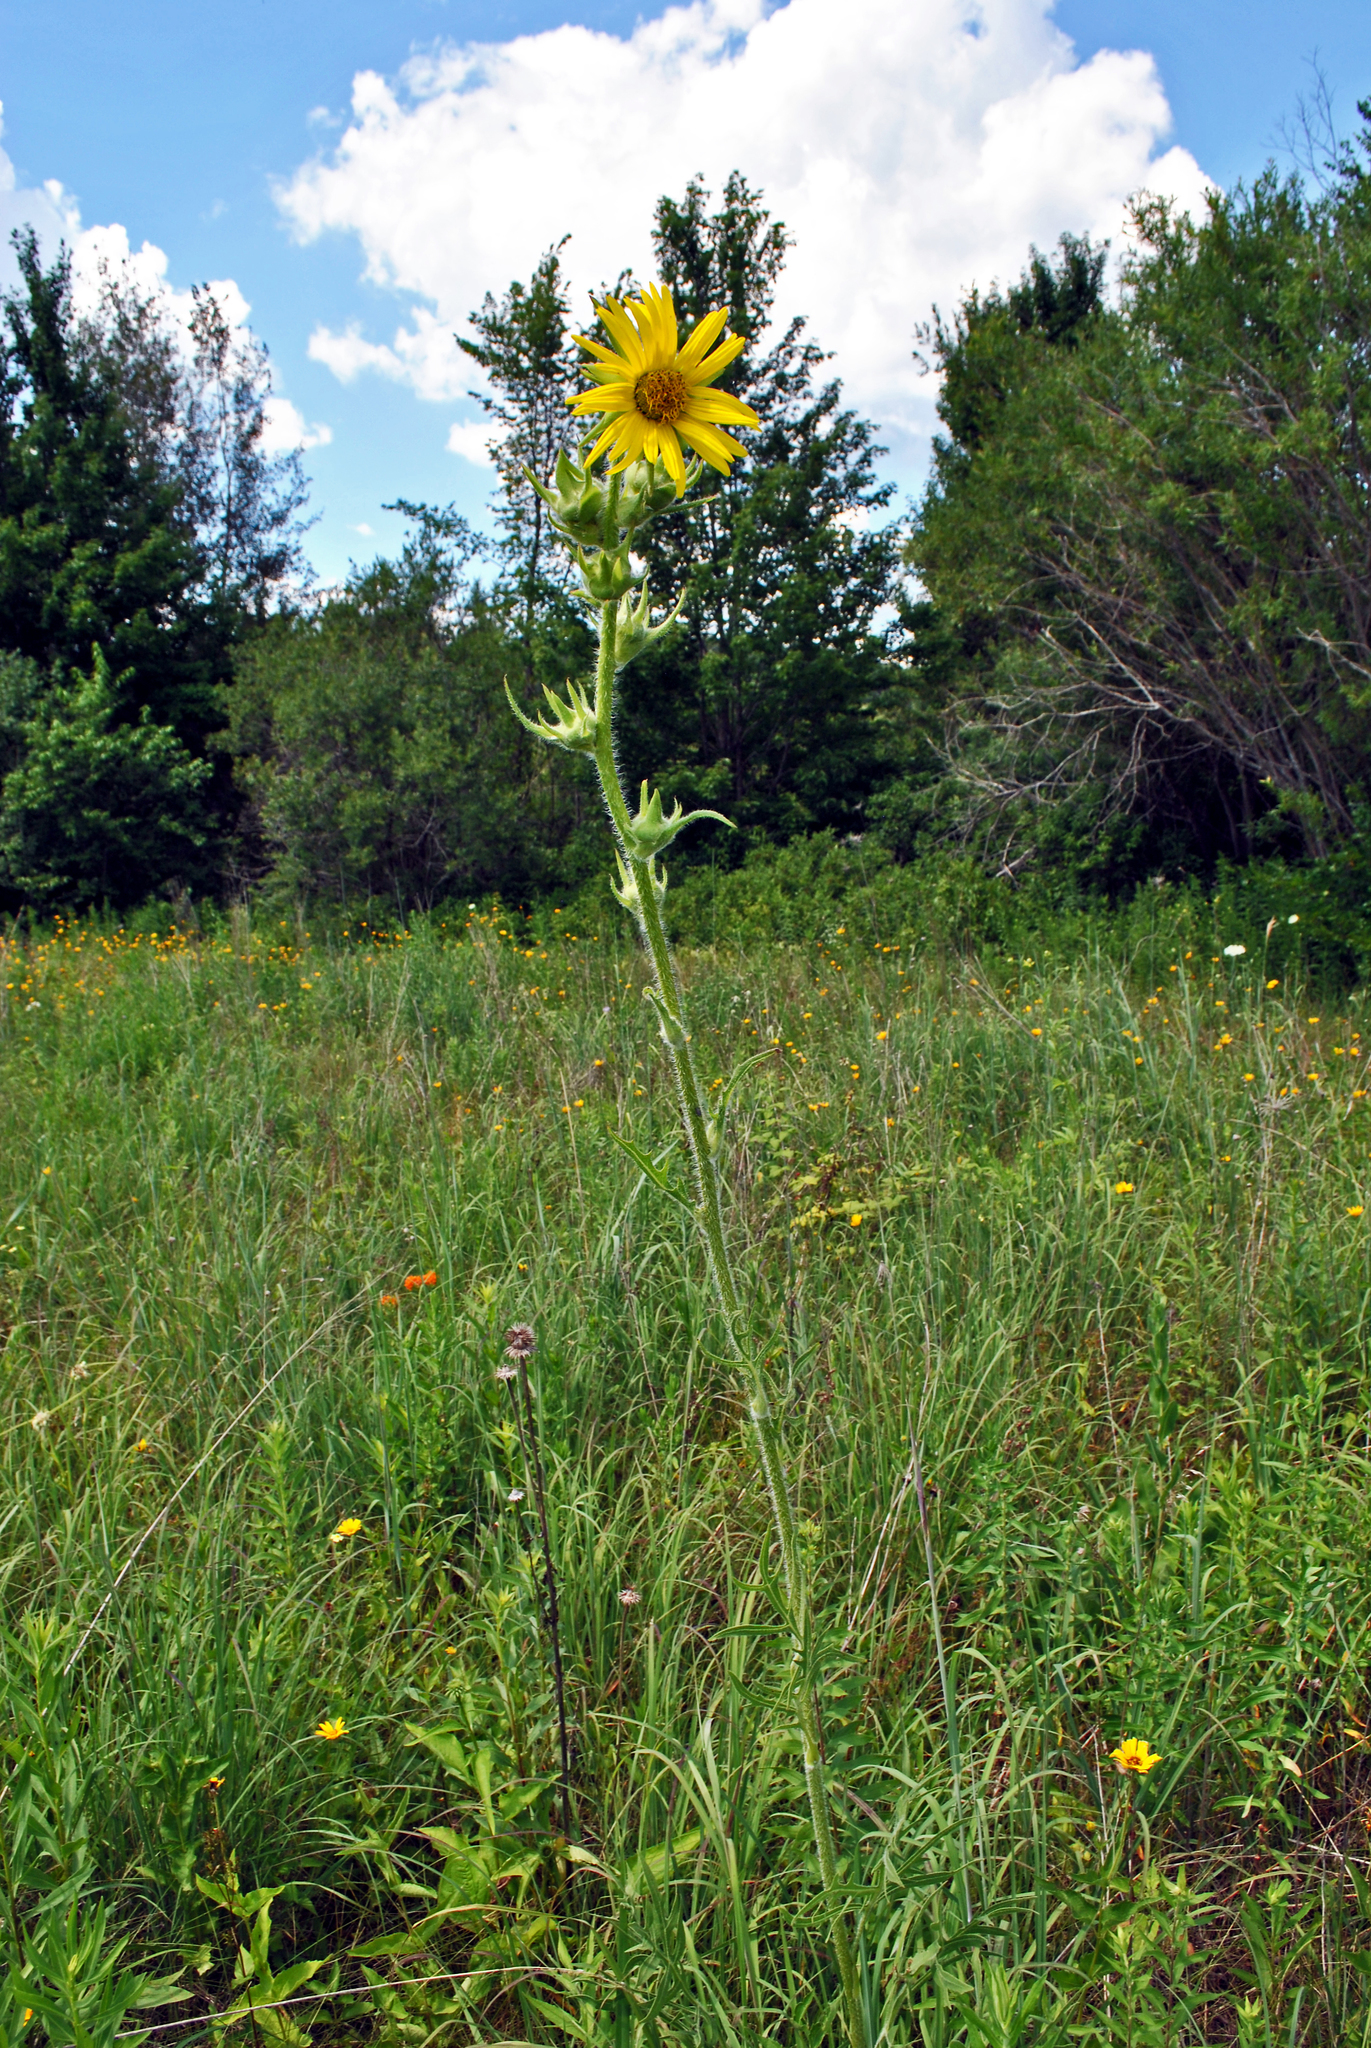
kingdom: Plantae
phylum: Tracheophyta
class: Magnoliopsida
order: Asterales
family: Asteraceae
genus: Silphium
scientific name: Silphium laciniatum
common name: Polarplant
